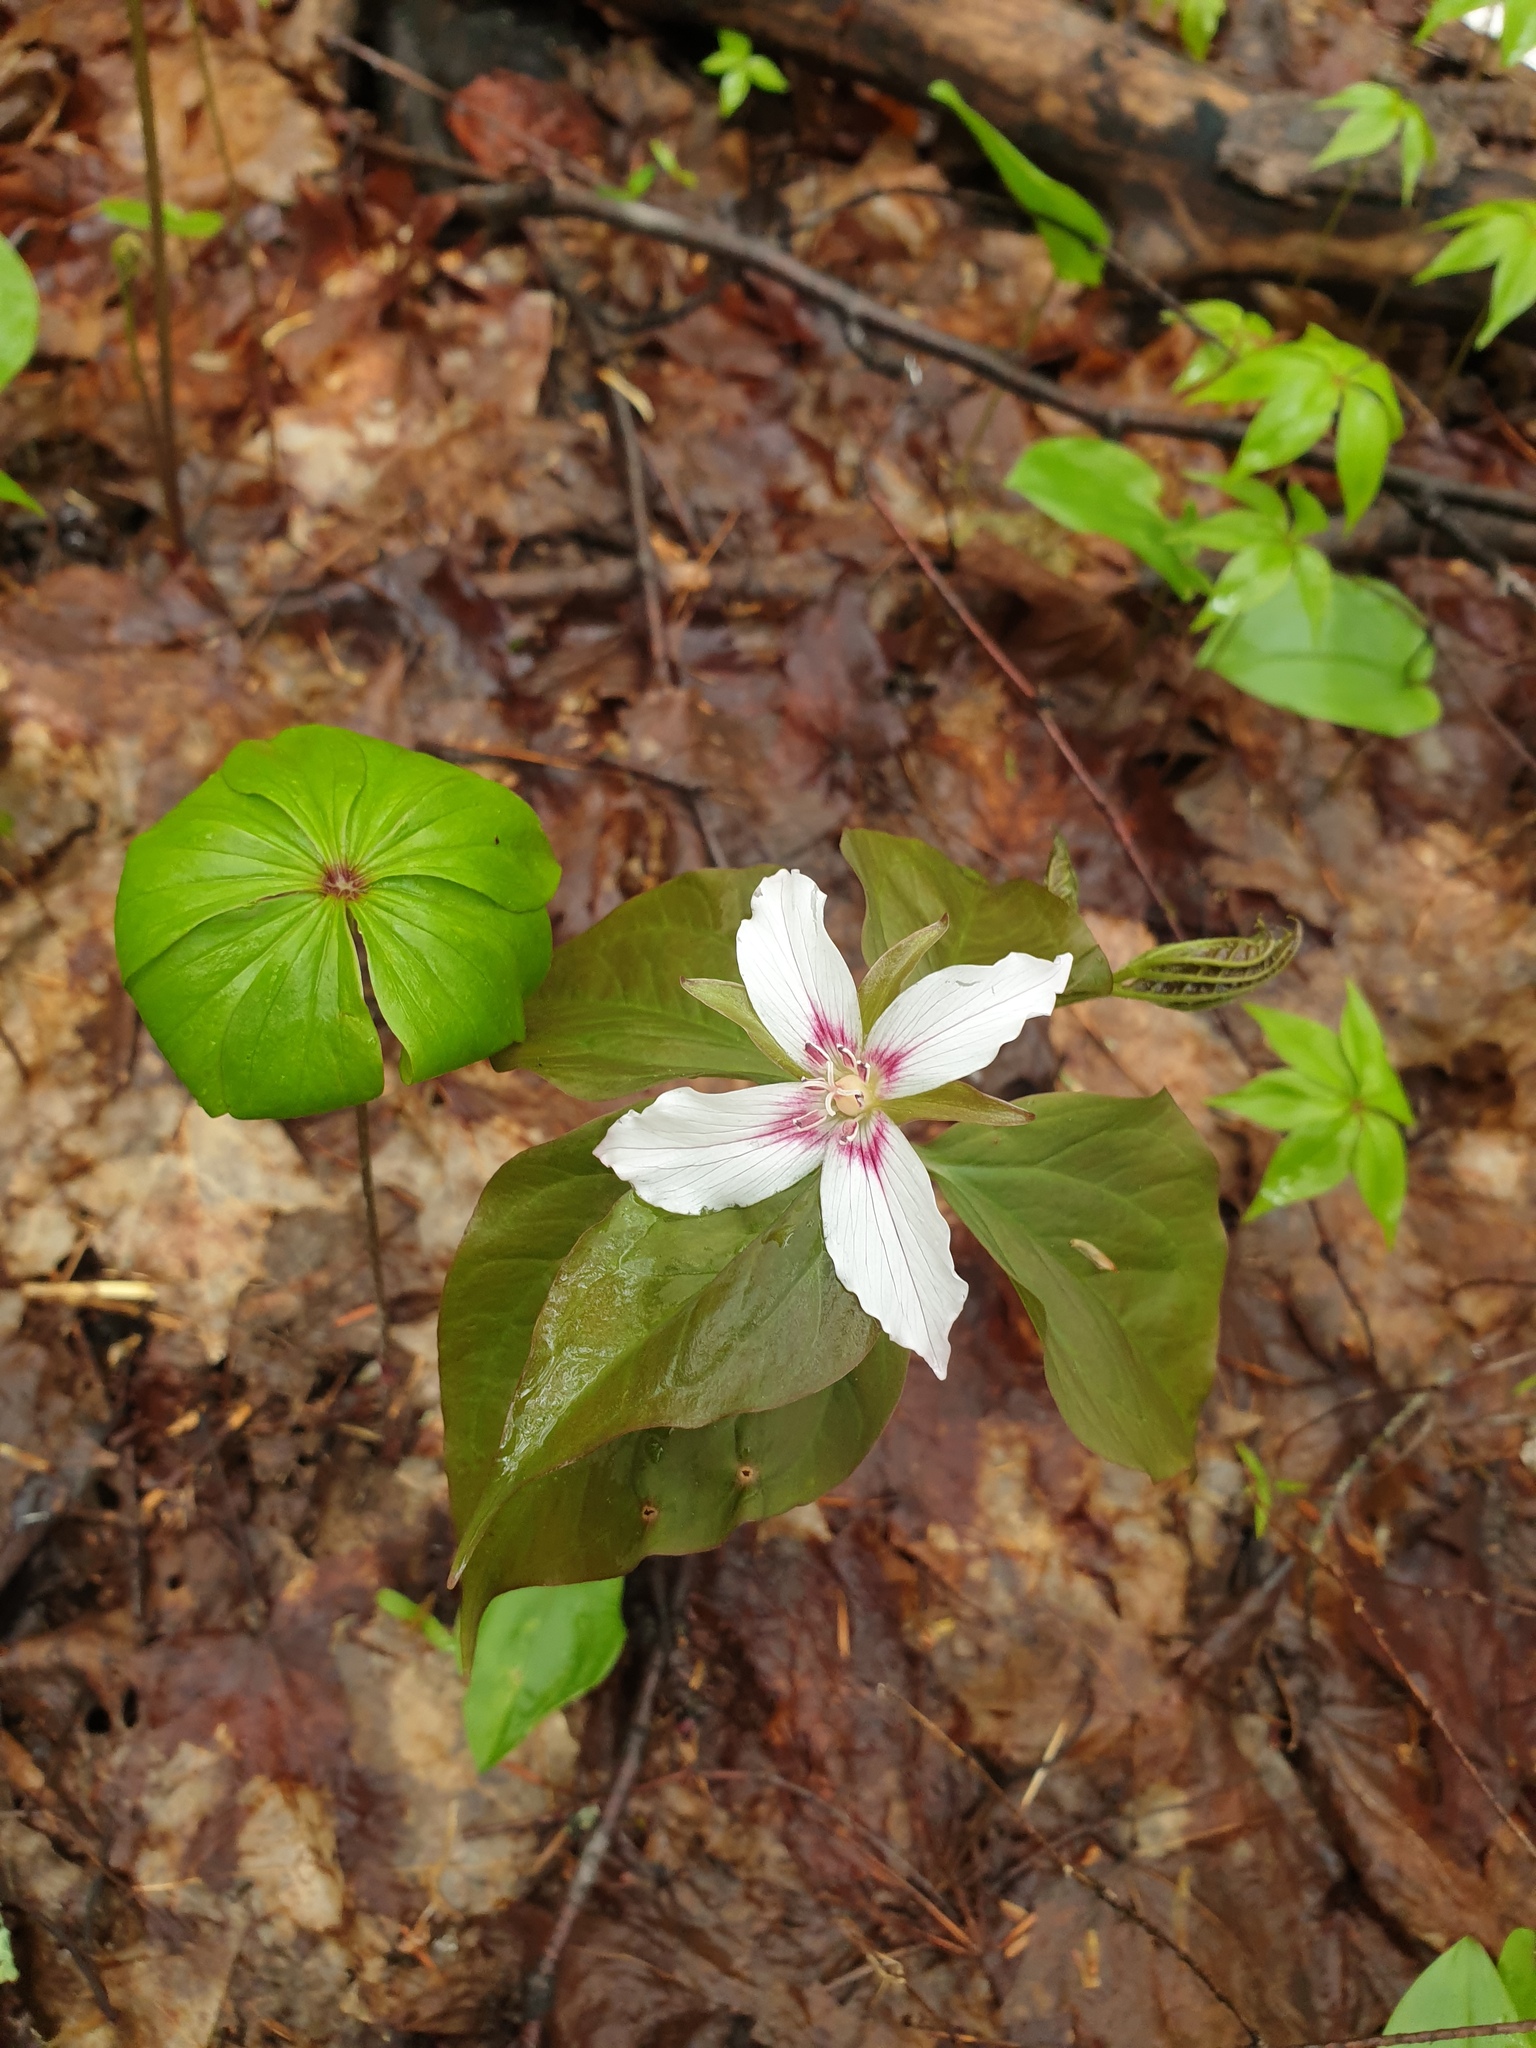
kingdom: Plantae
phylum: Tracheophyta
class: Liliopsida
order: Liliales
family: Melanthiaceae
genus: Trillium
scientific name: Trillium undulatum
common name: Paint trillium
